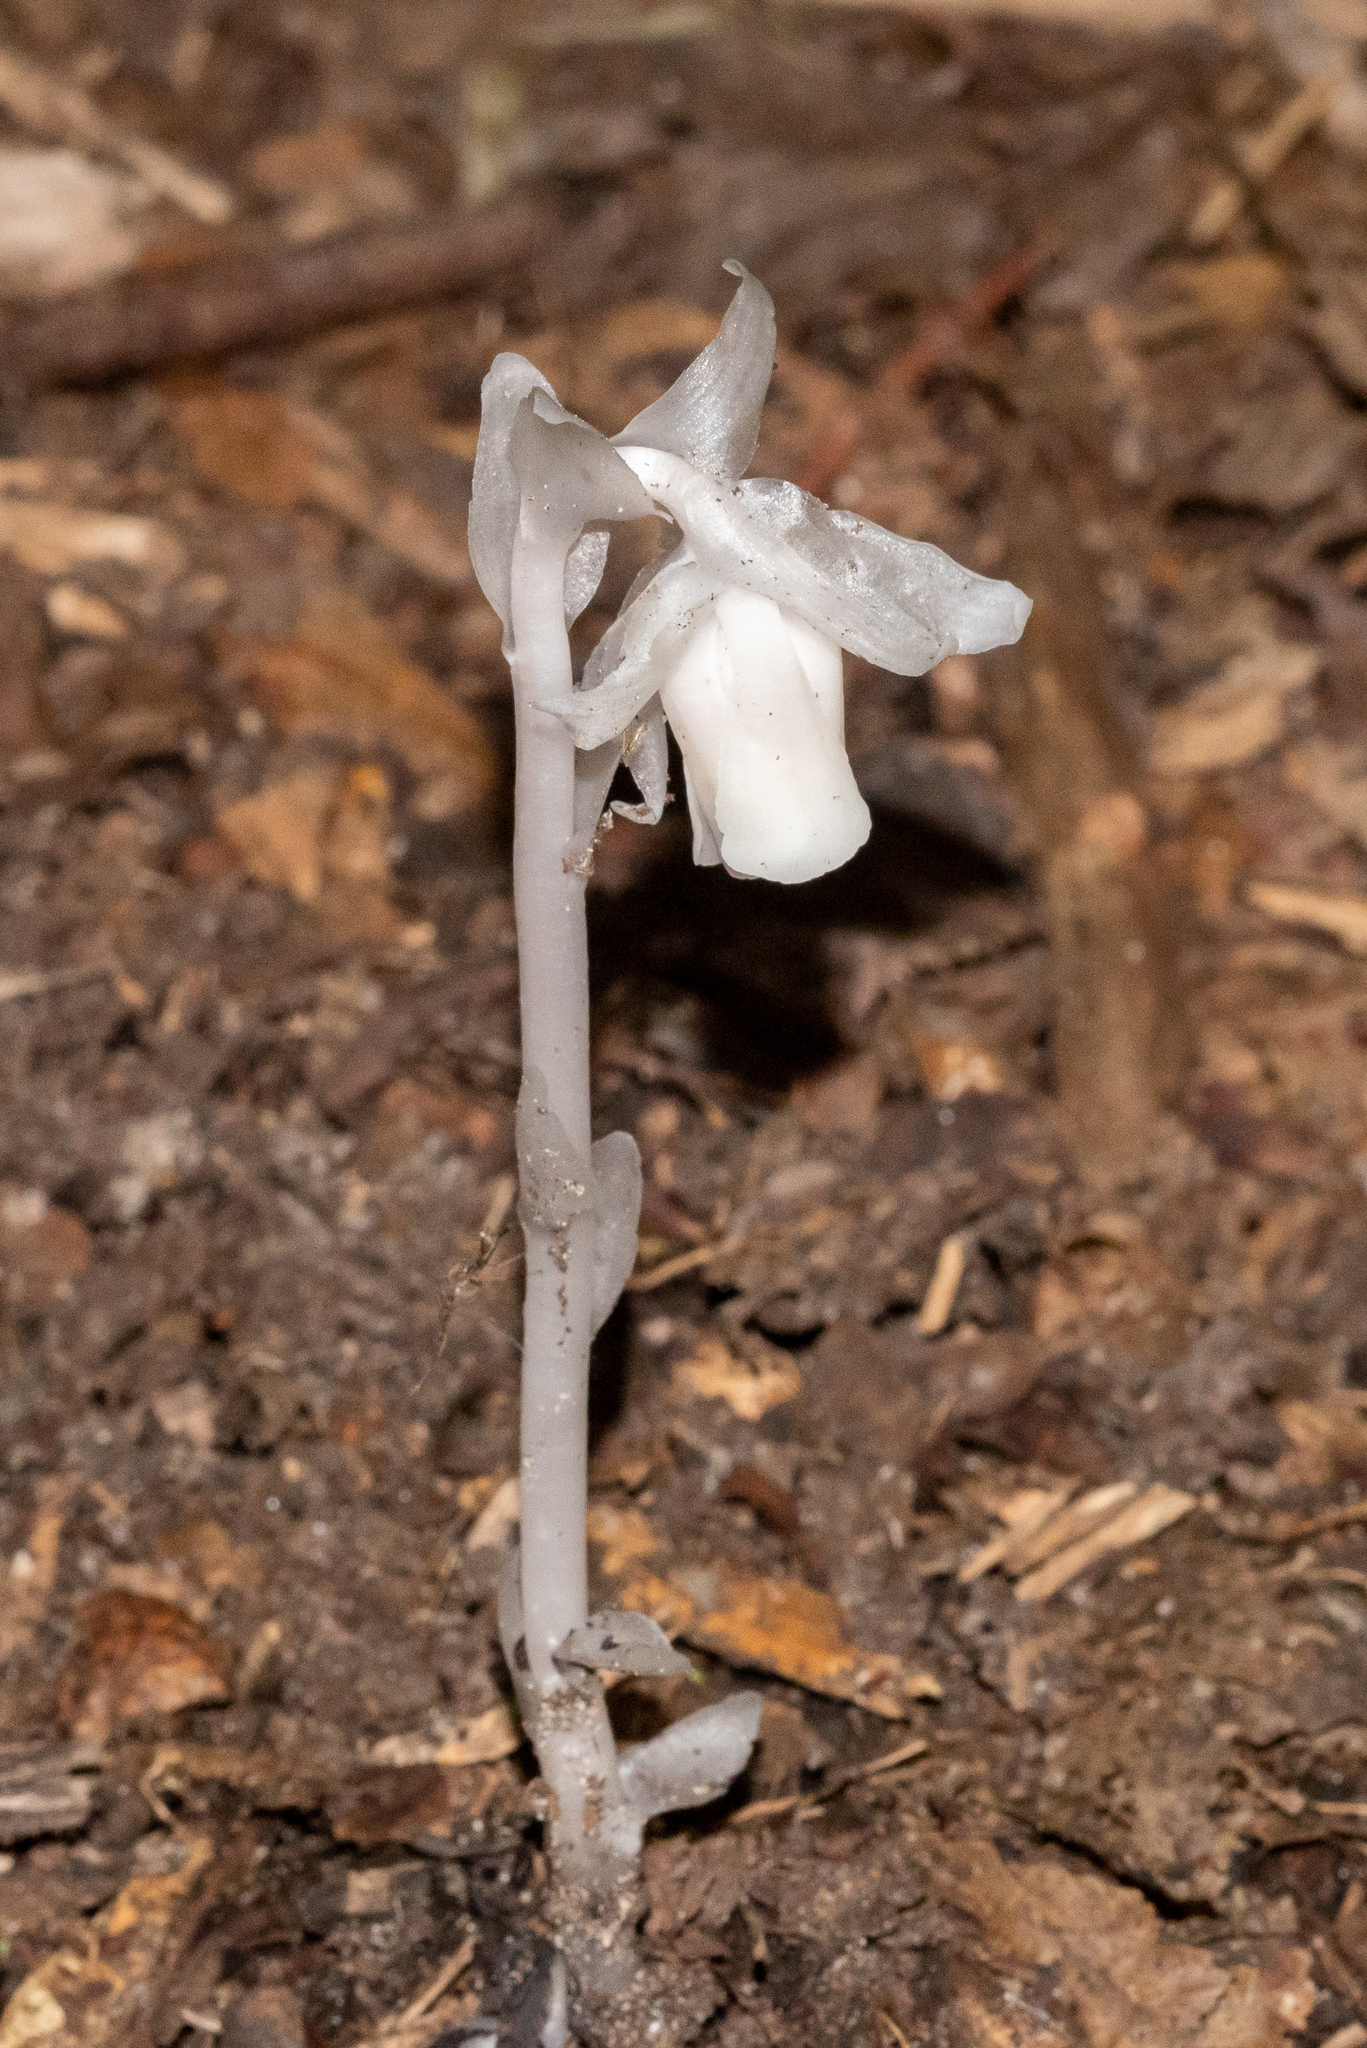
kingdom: Plantae
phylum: Tracheophyta
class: Magnoliopsida
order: Ericales
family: Ericaceae
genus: Monotropa
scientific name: Monotropa uniflora
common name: Convulsion root
